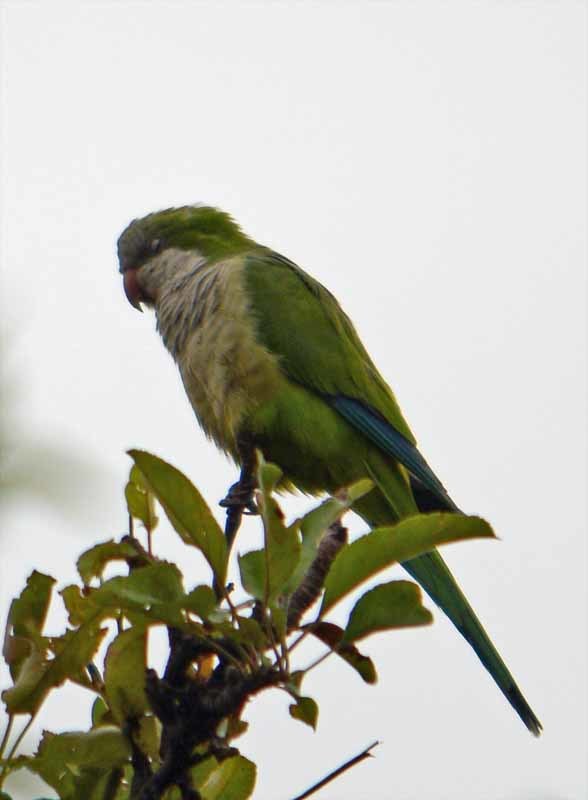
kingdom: Animalia
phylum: Chordata
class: Aves
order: Psittaciformes
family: Psittacidae
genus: Myiopsitta
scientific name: Myiopsitta monachus
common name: Monk parakeet
